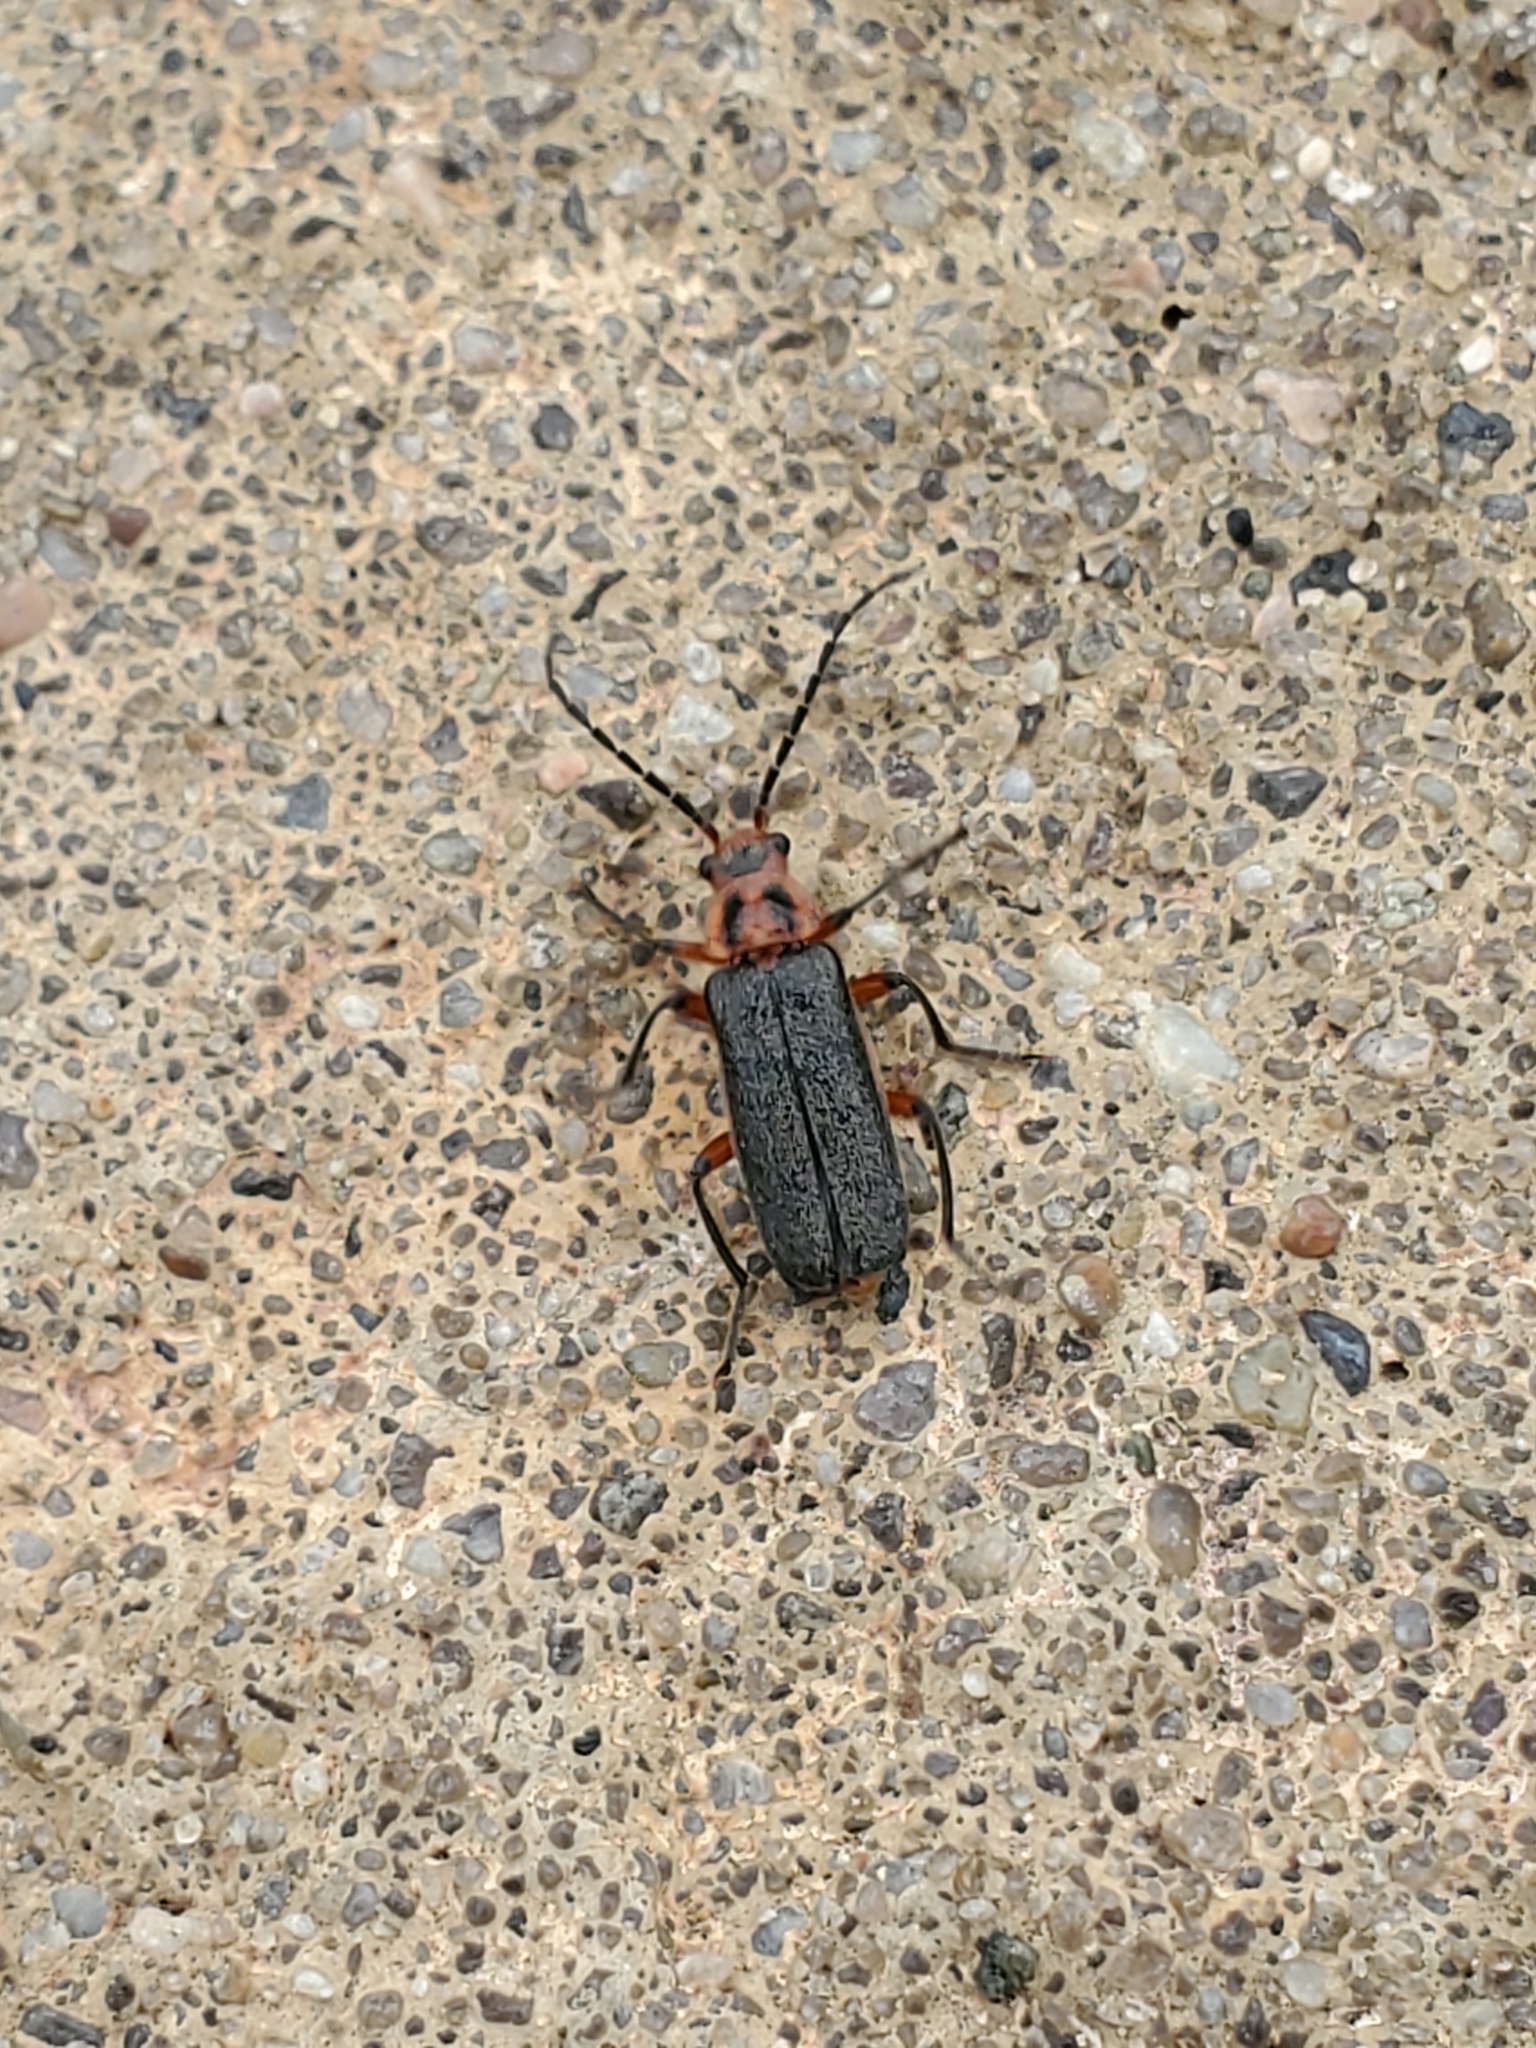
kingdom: Animalia
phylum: Arthropoda
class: Insecta
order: Coleoptera
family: Cantharidae
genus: Atalantycha
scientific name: Atalantycha bilineata
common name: Two-lined leatherwing
